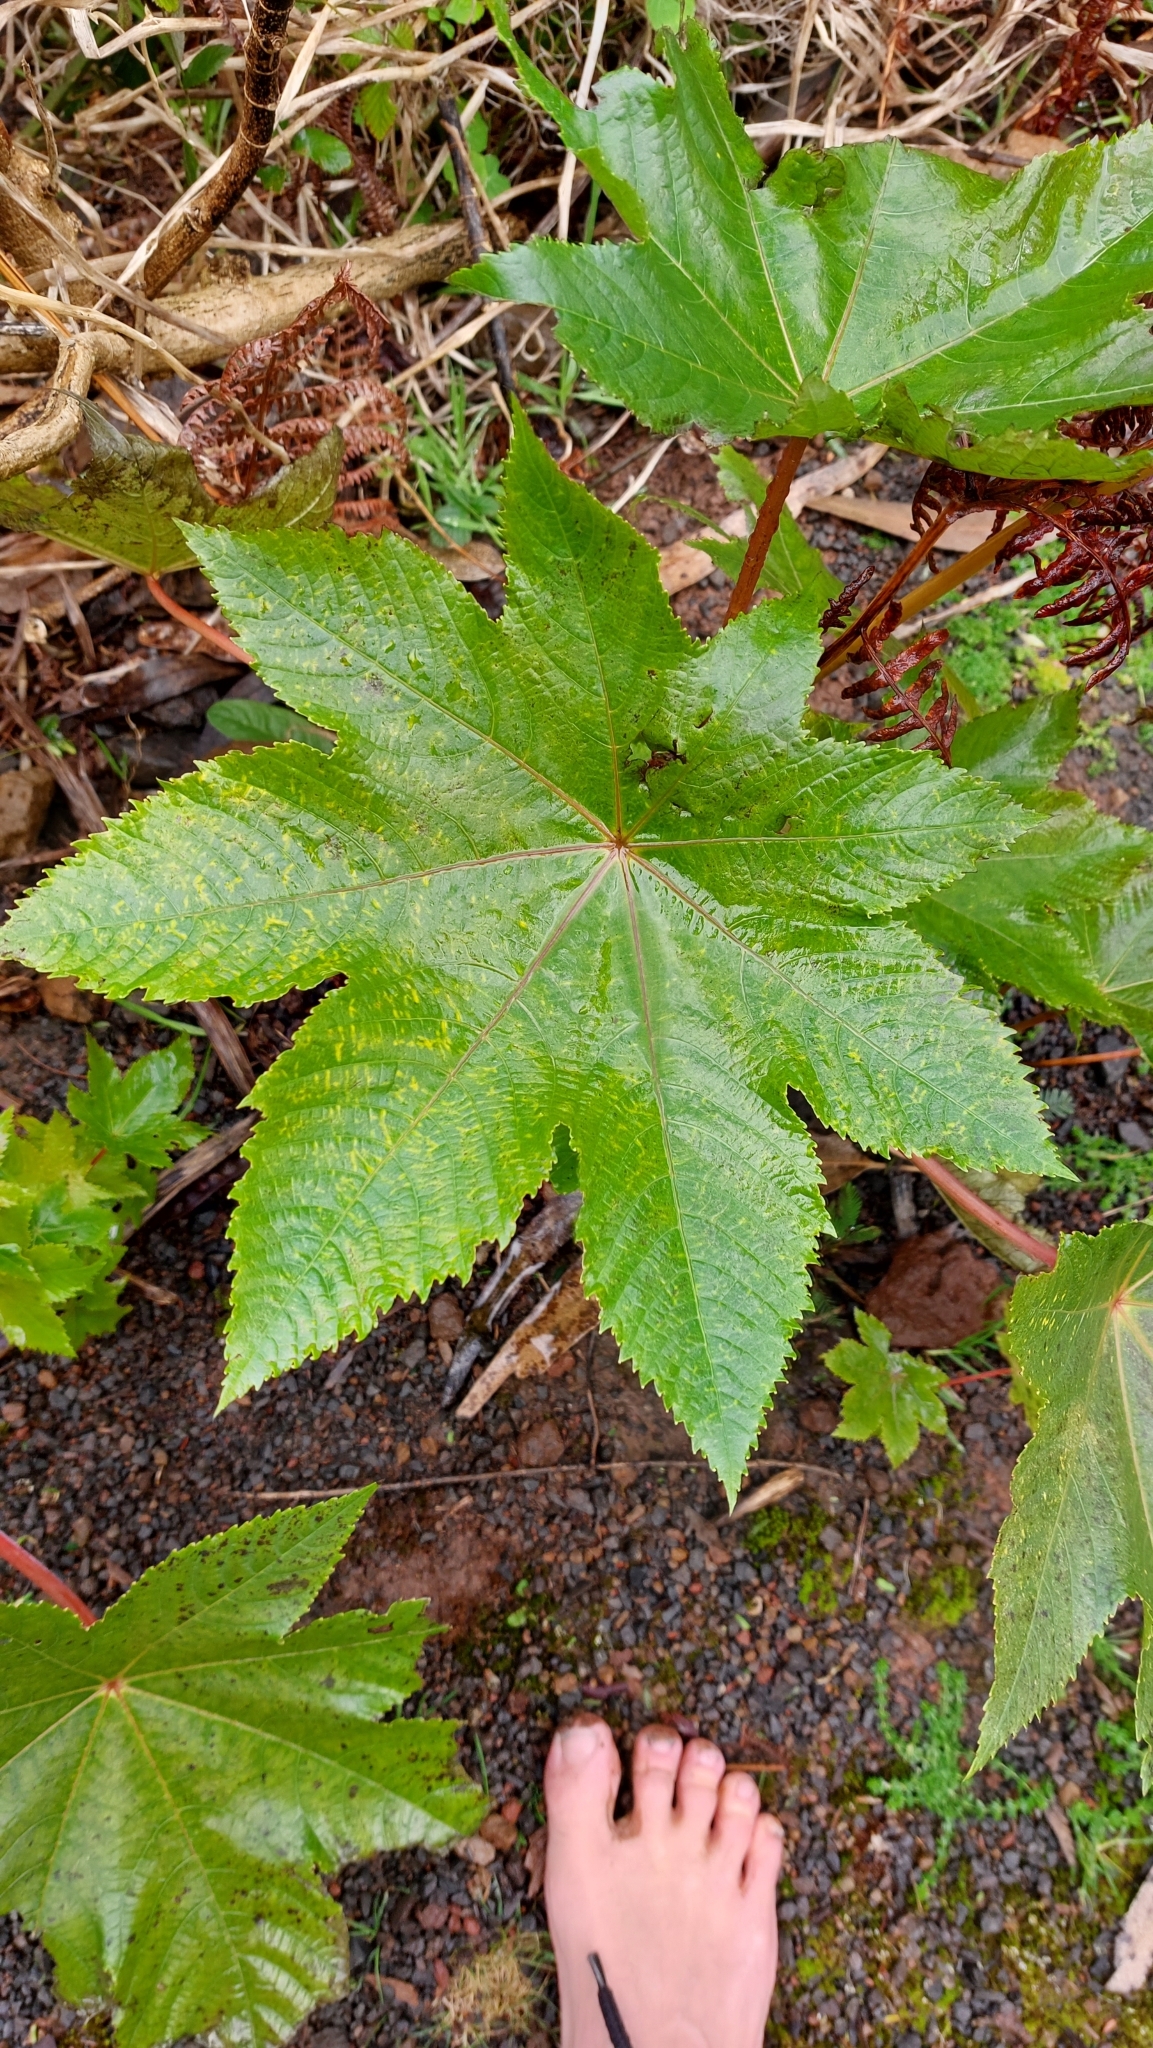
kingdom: Plantae
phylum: Tracheophyta
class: Magnoliopsida
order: Malpighiales
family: Euphorbiaceae
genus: Ricinus
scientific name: Ricinus communis
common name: Castor-oil-plant
